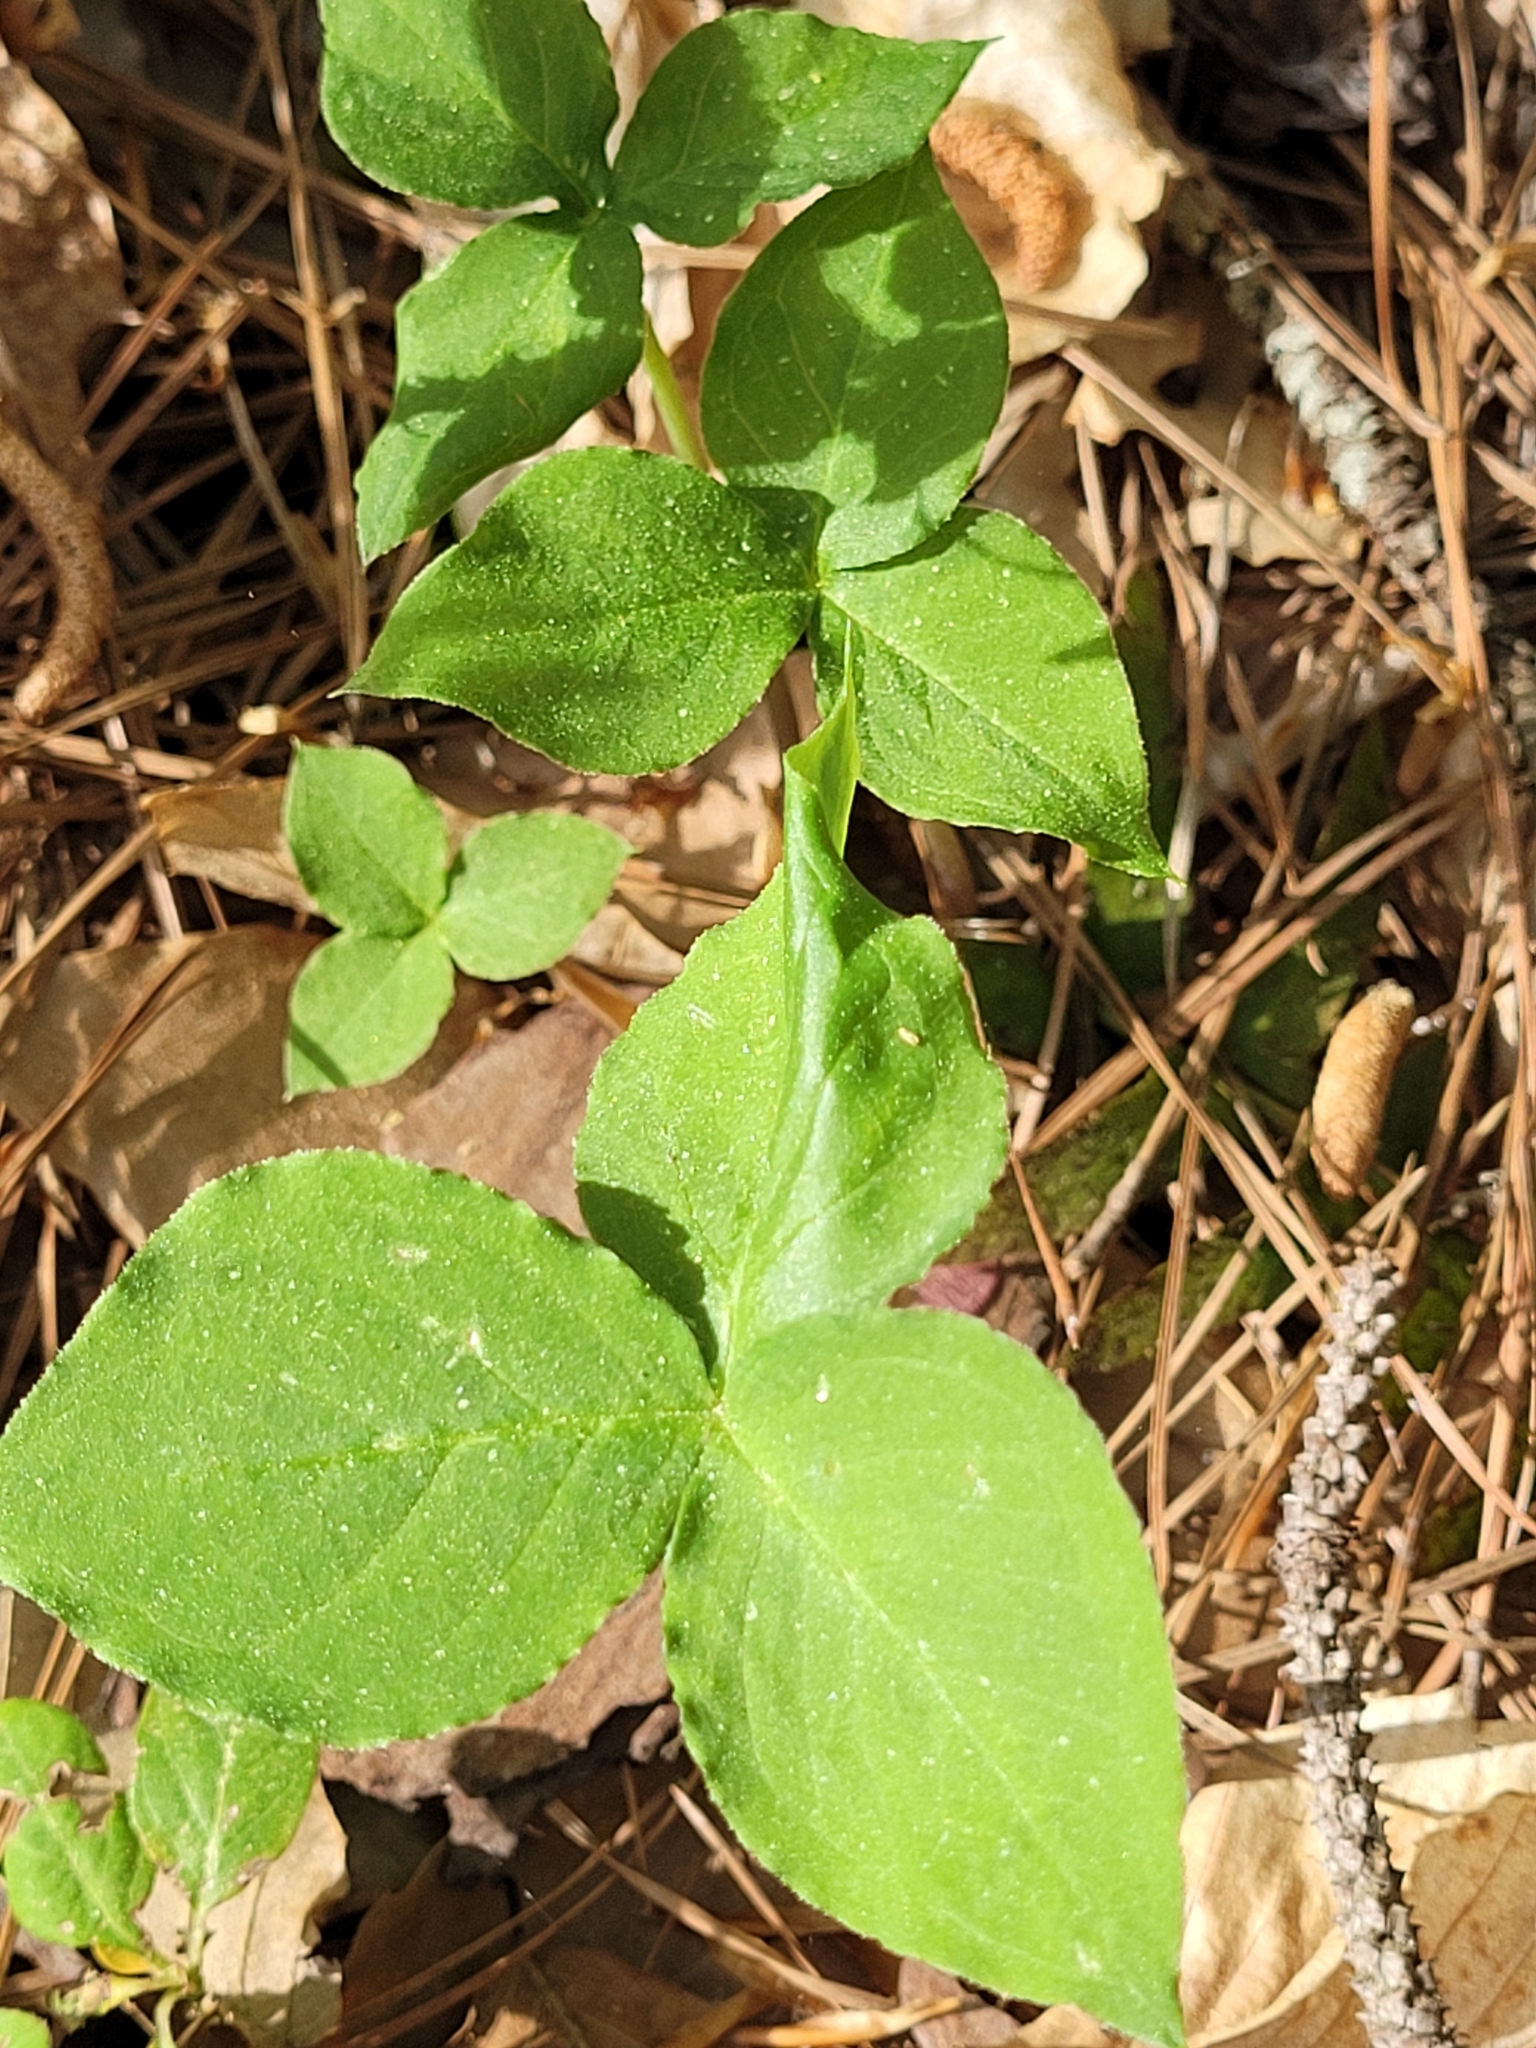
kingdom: Plantae
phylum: Tracheophyta
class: Liliopsida
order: Alismatales
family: Araceae
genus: Arisaema
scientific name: Arisaema triphyllum
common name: Jack-in-the-pulpit
